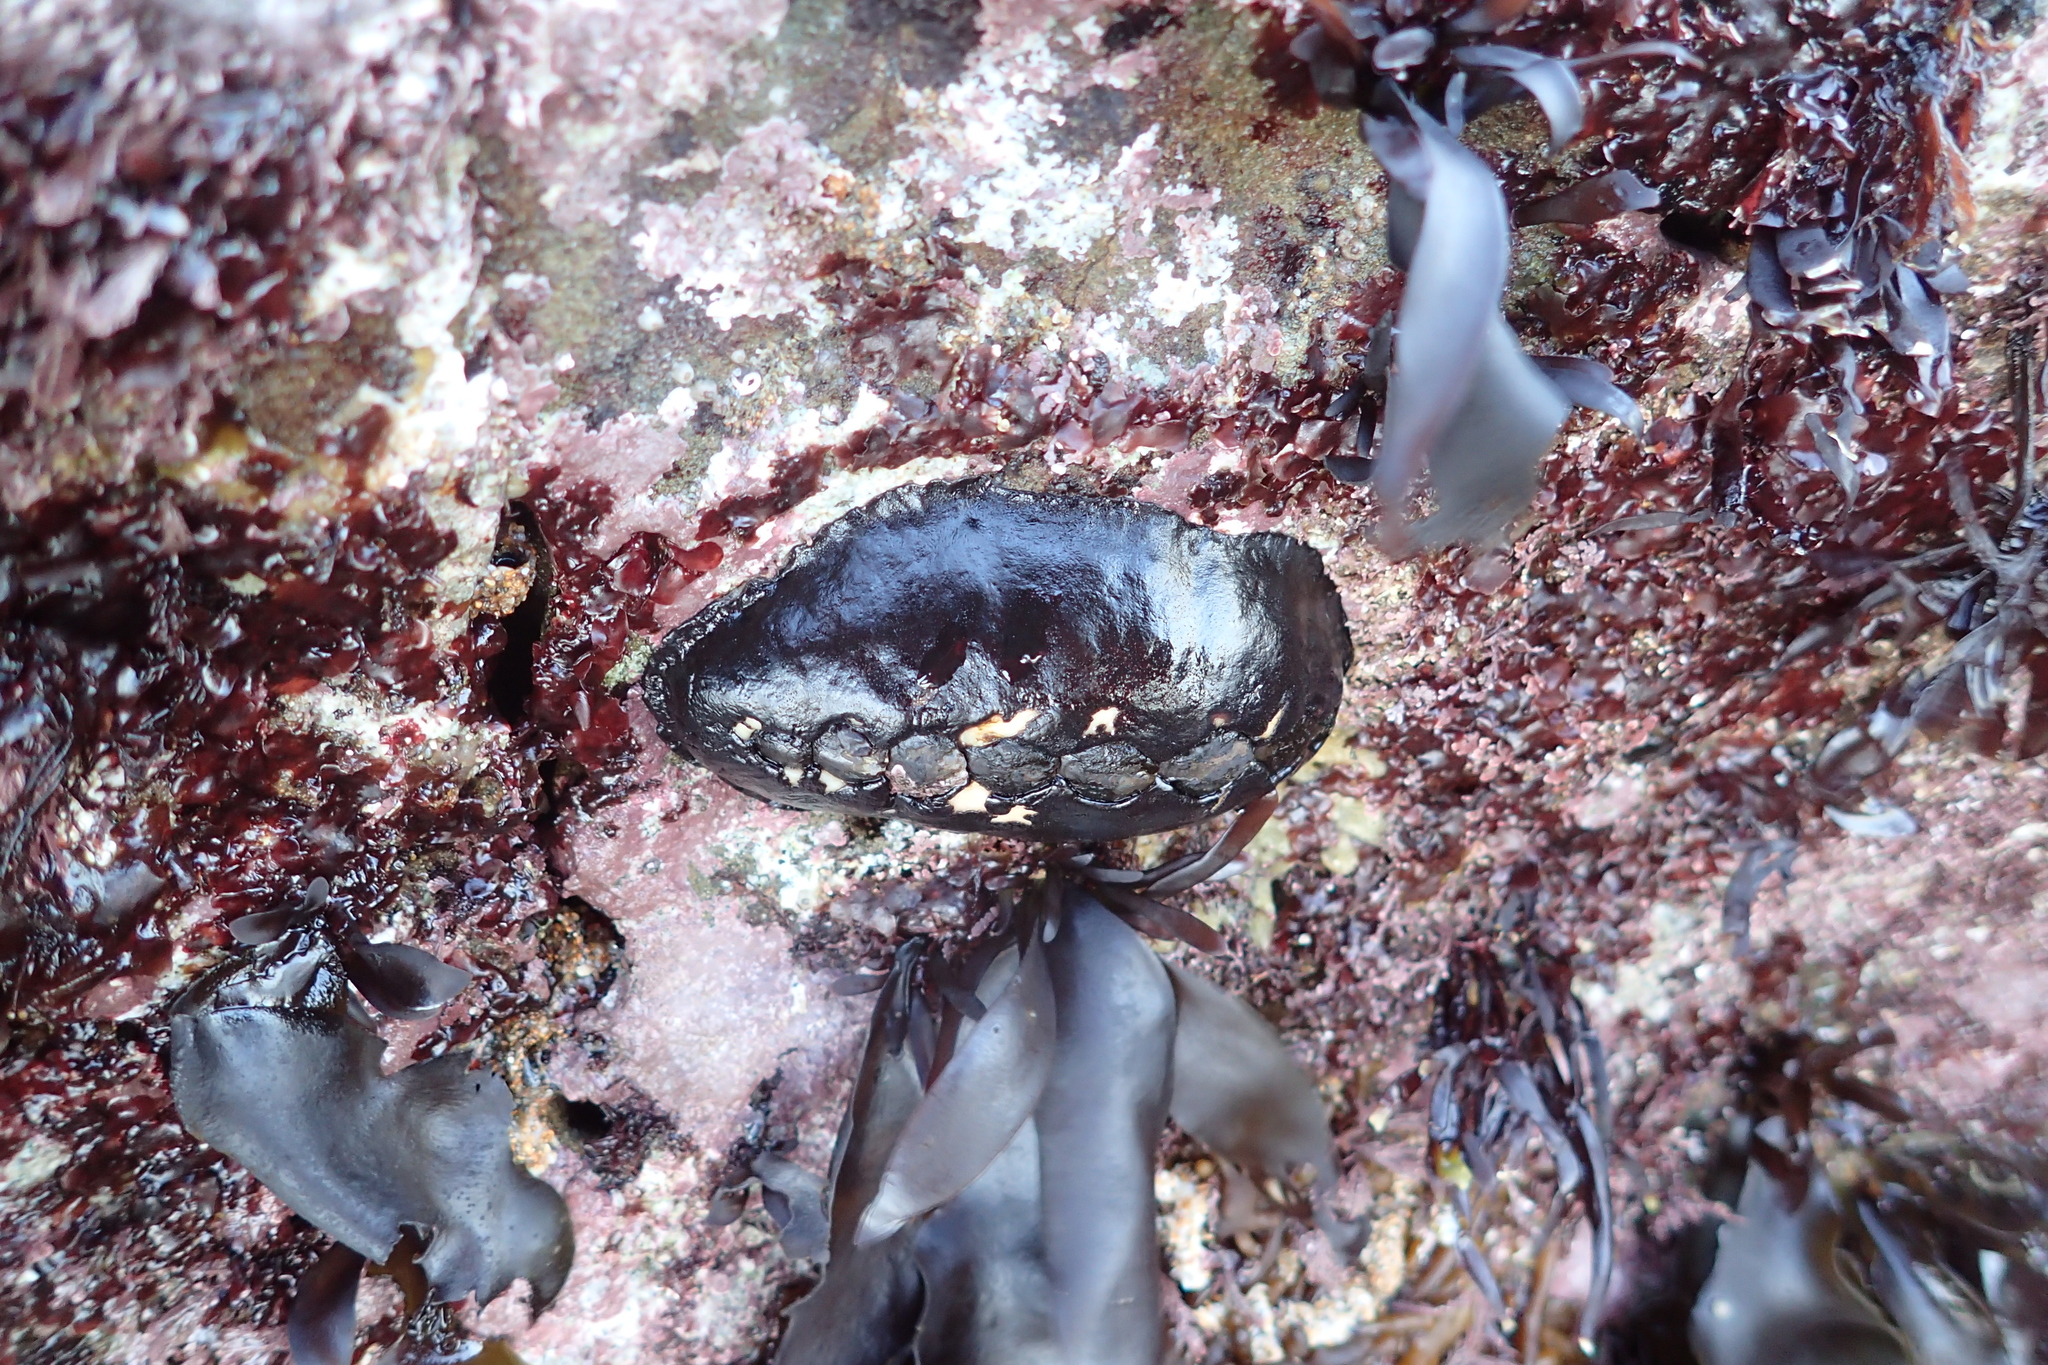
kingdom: Animalia
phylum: Mollusca
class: Polyplacophora
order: Chitonida
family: Mopaliidae
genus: Katharina
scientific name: Katharina tunicata
